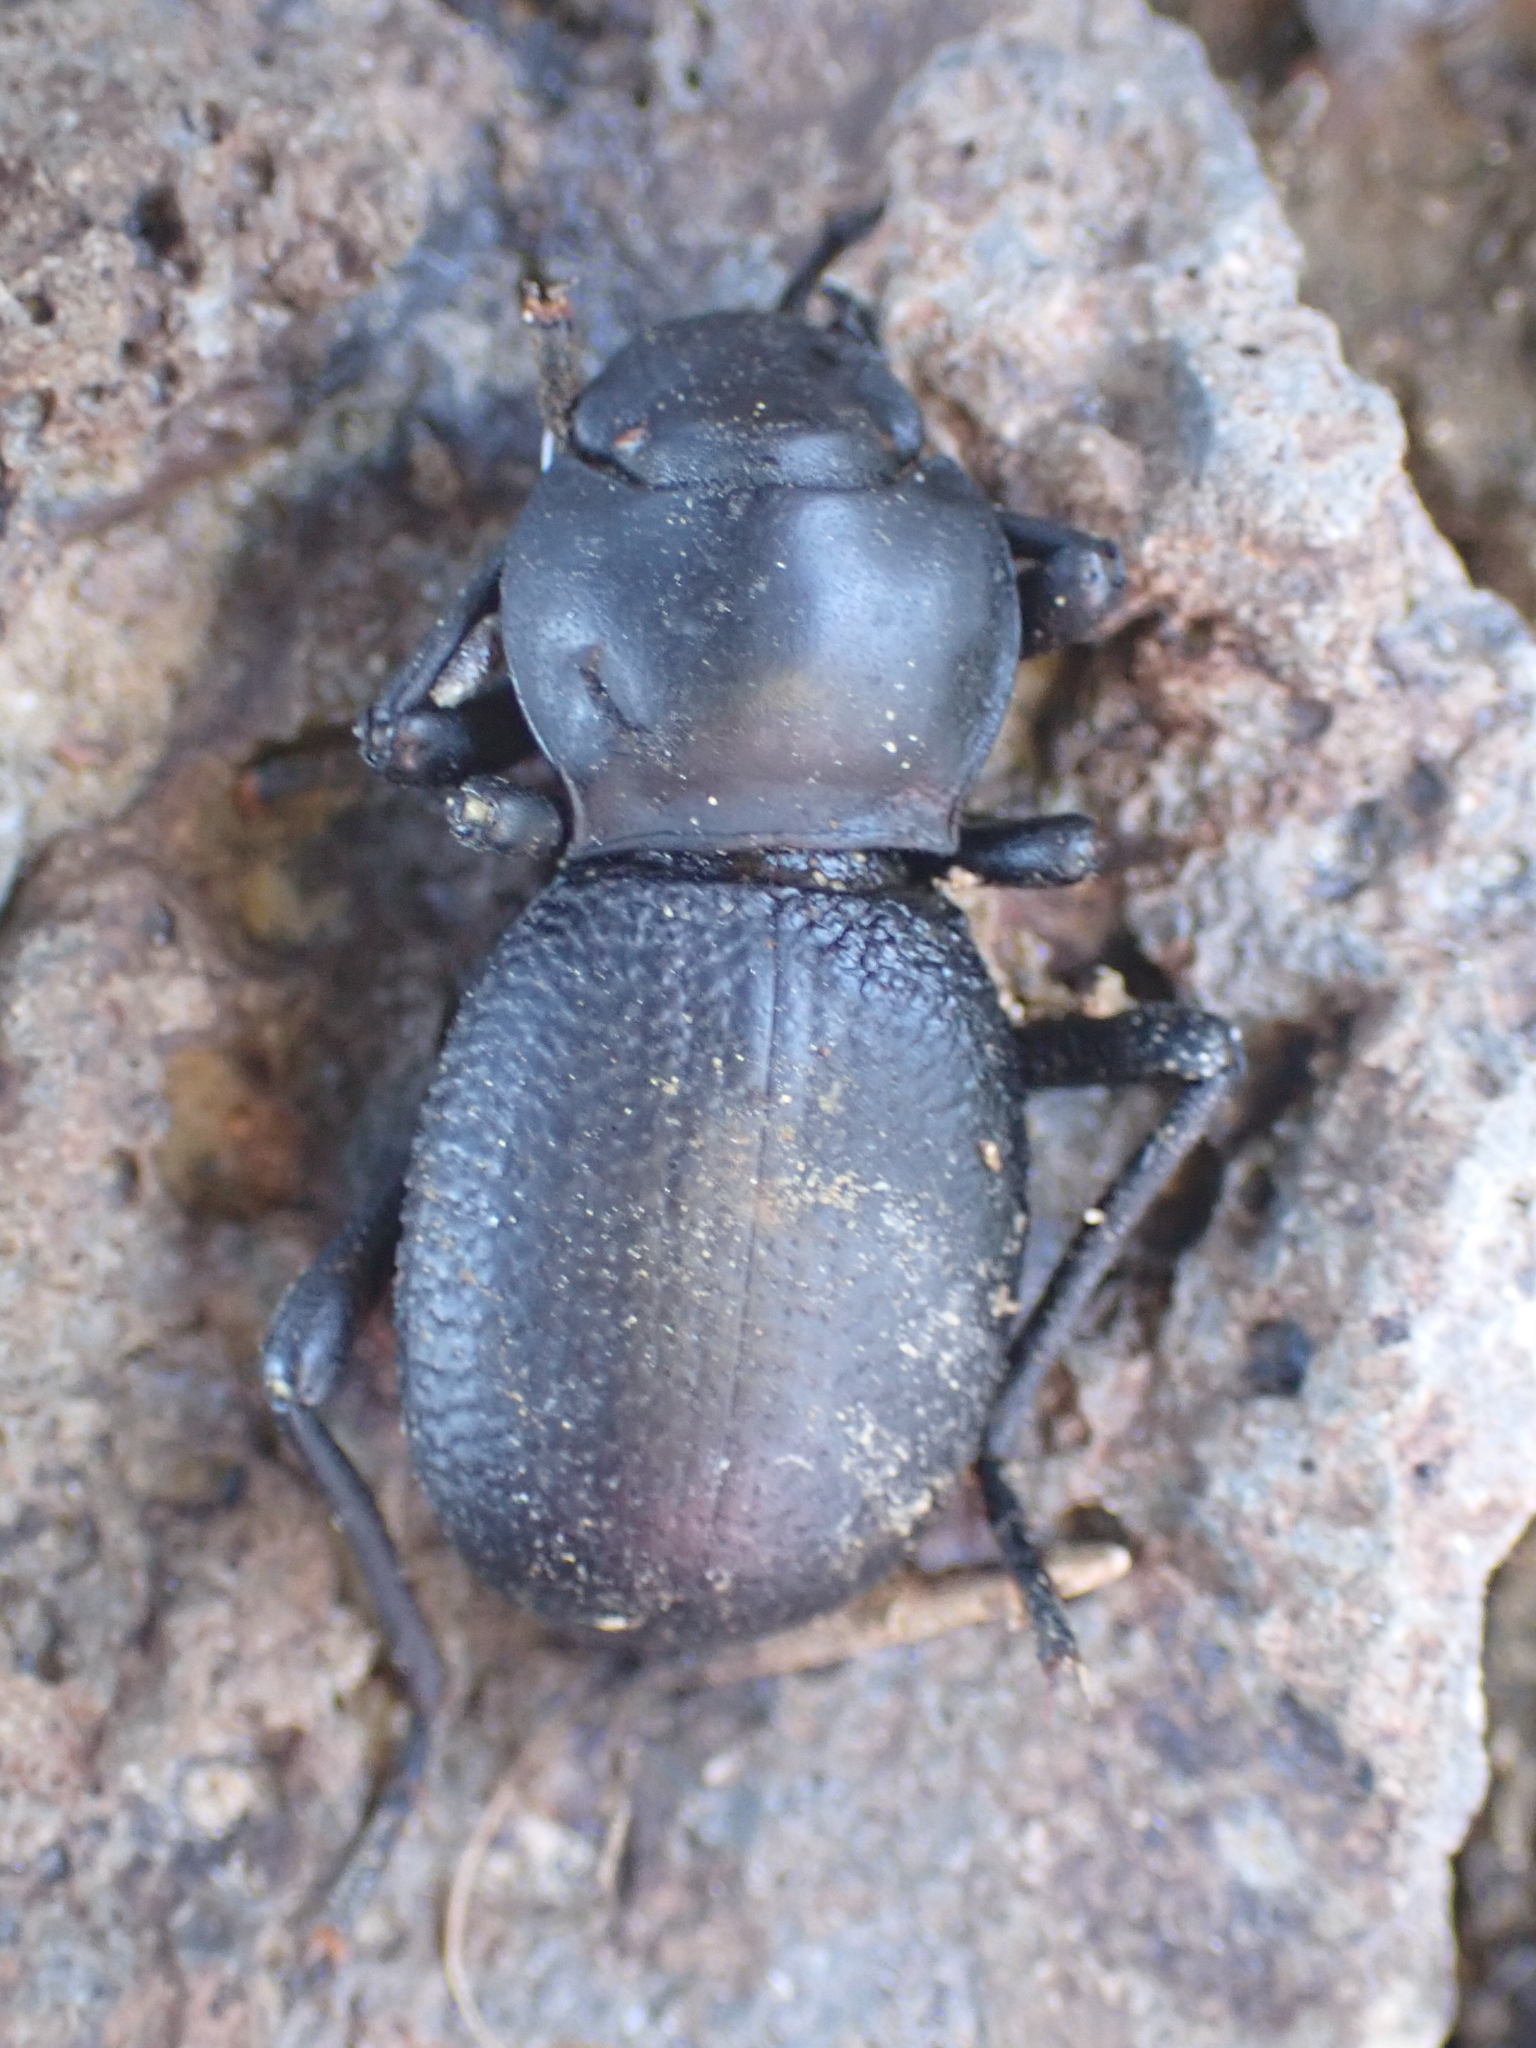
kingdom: Animalia
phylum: Arthropoda
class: Insecta
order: Coleoptera
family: Tenebrionidae
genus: Schizillus
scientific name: Schizillus laticeps
